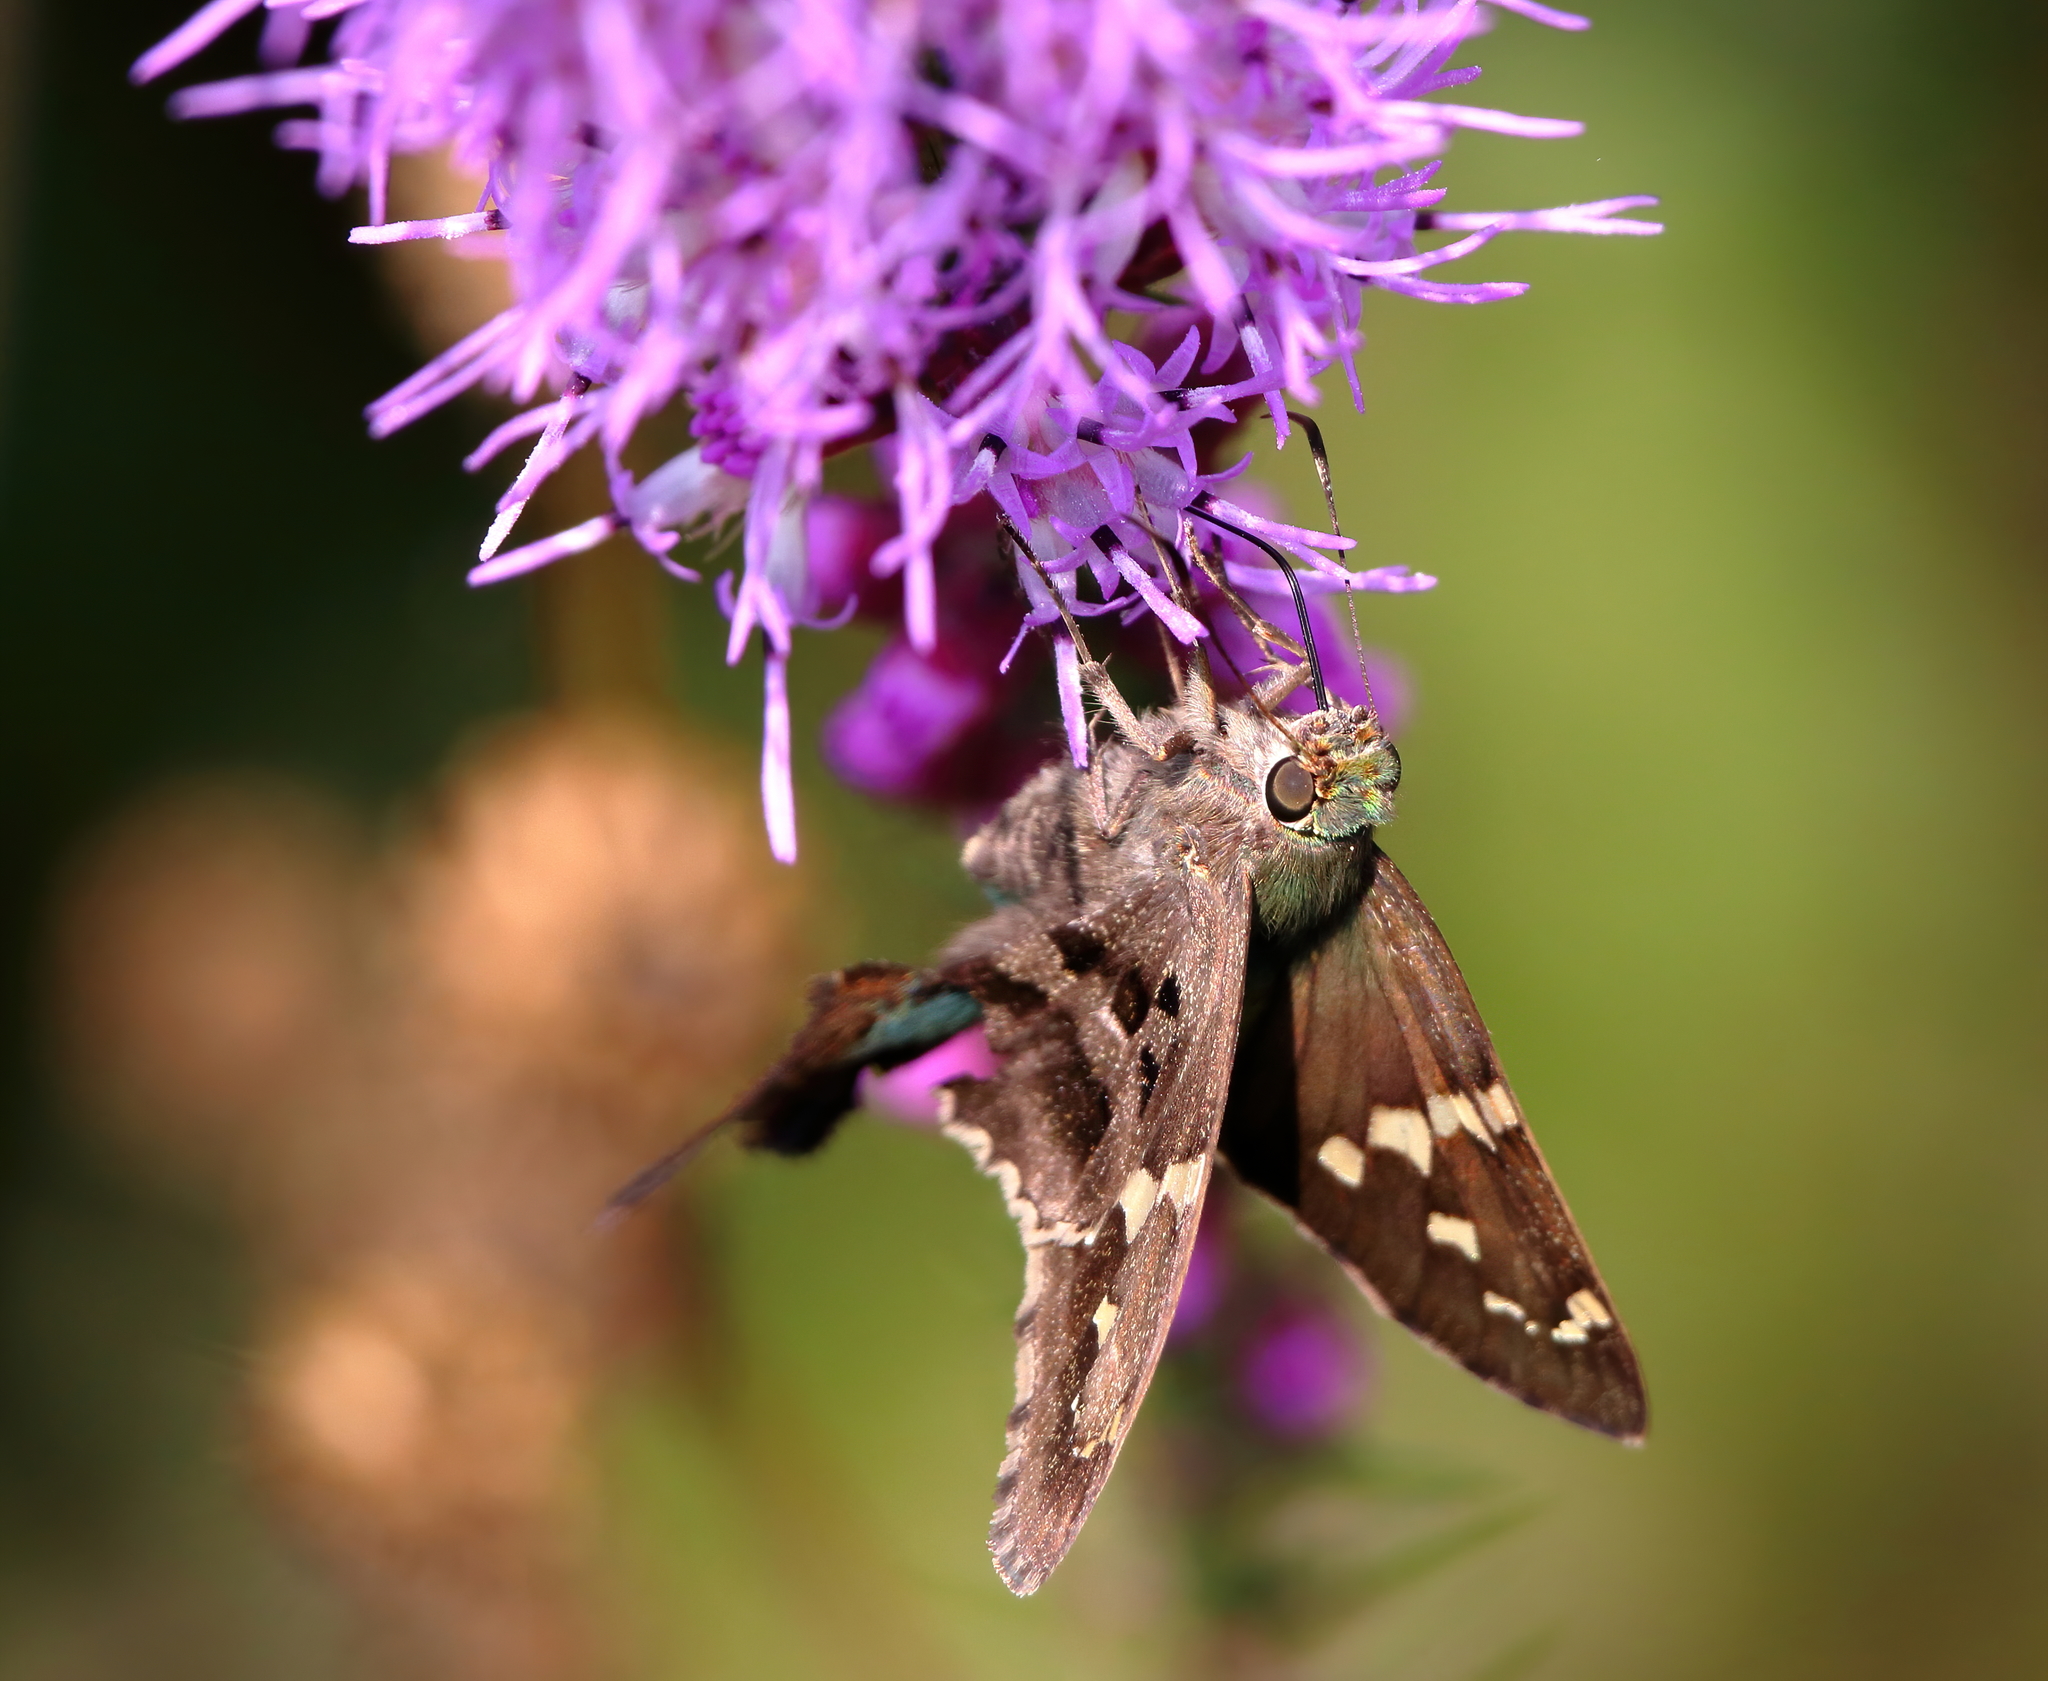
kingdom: Animalia
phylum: Arthropoda
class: Insecta
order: Lepidoptera
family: Hesperiidae
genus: Urbanus
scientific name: Urbanus proteus
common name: Long-tailed skipper
